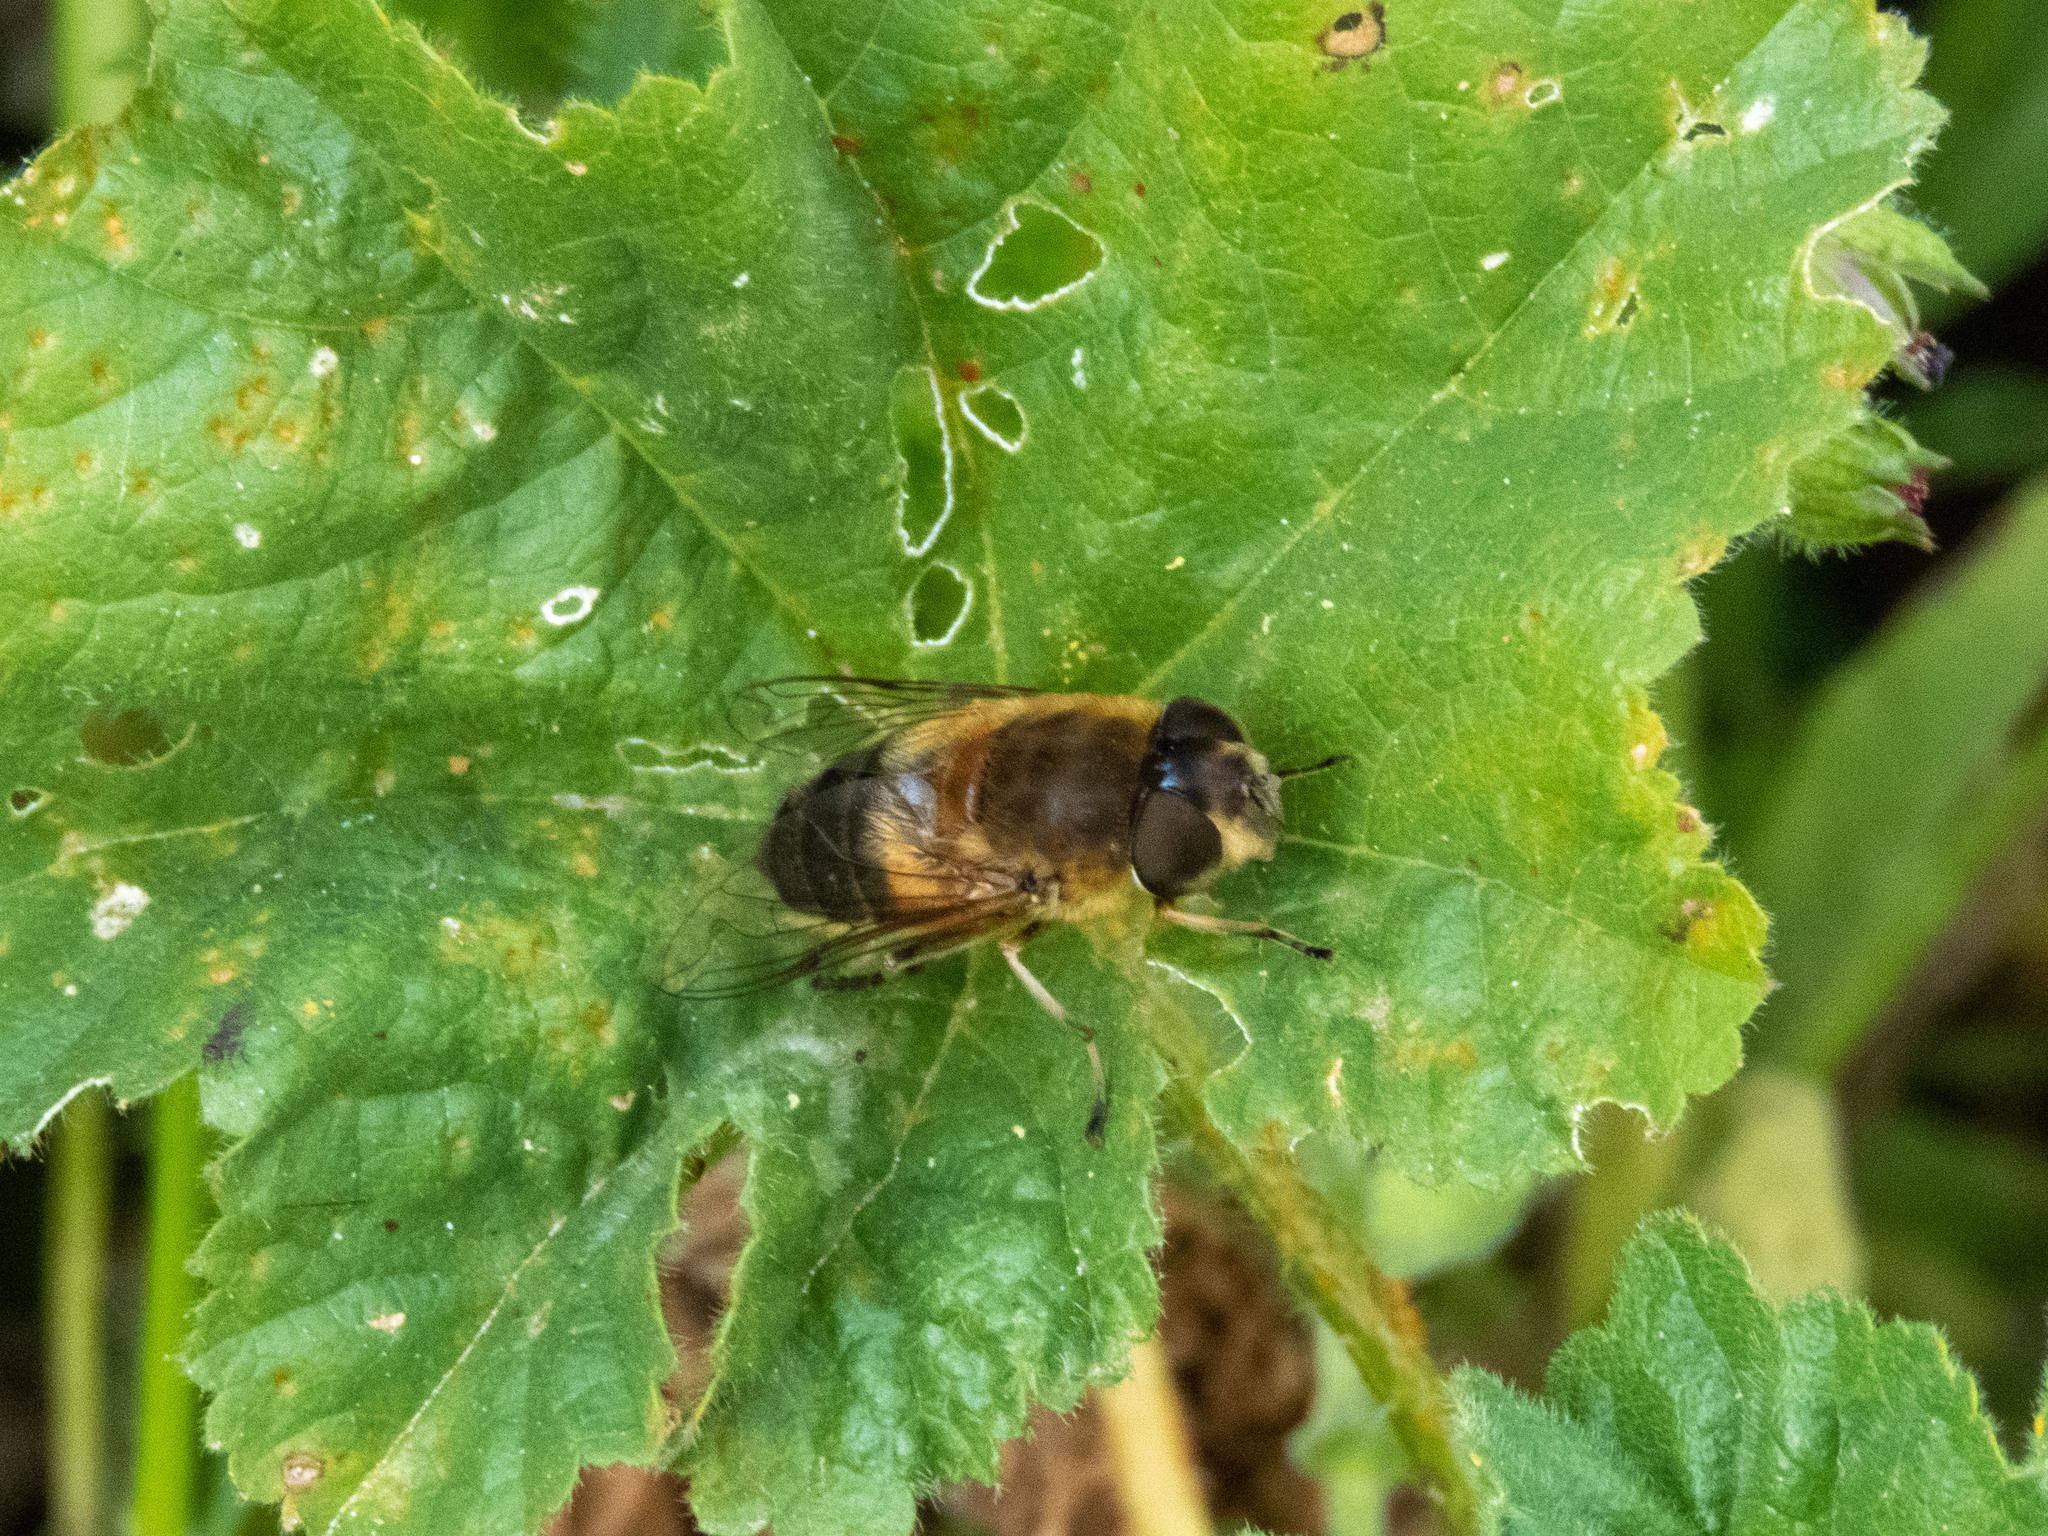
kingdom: Animalia
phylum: Arthropoda
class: Insecta
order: Diptera
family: Syrphidae
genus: Eristalis
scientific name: Eristalis pertinax
